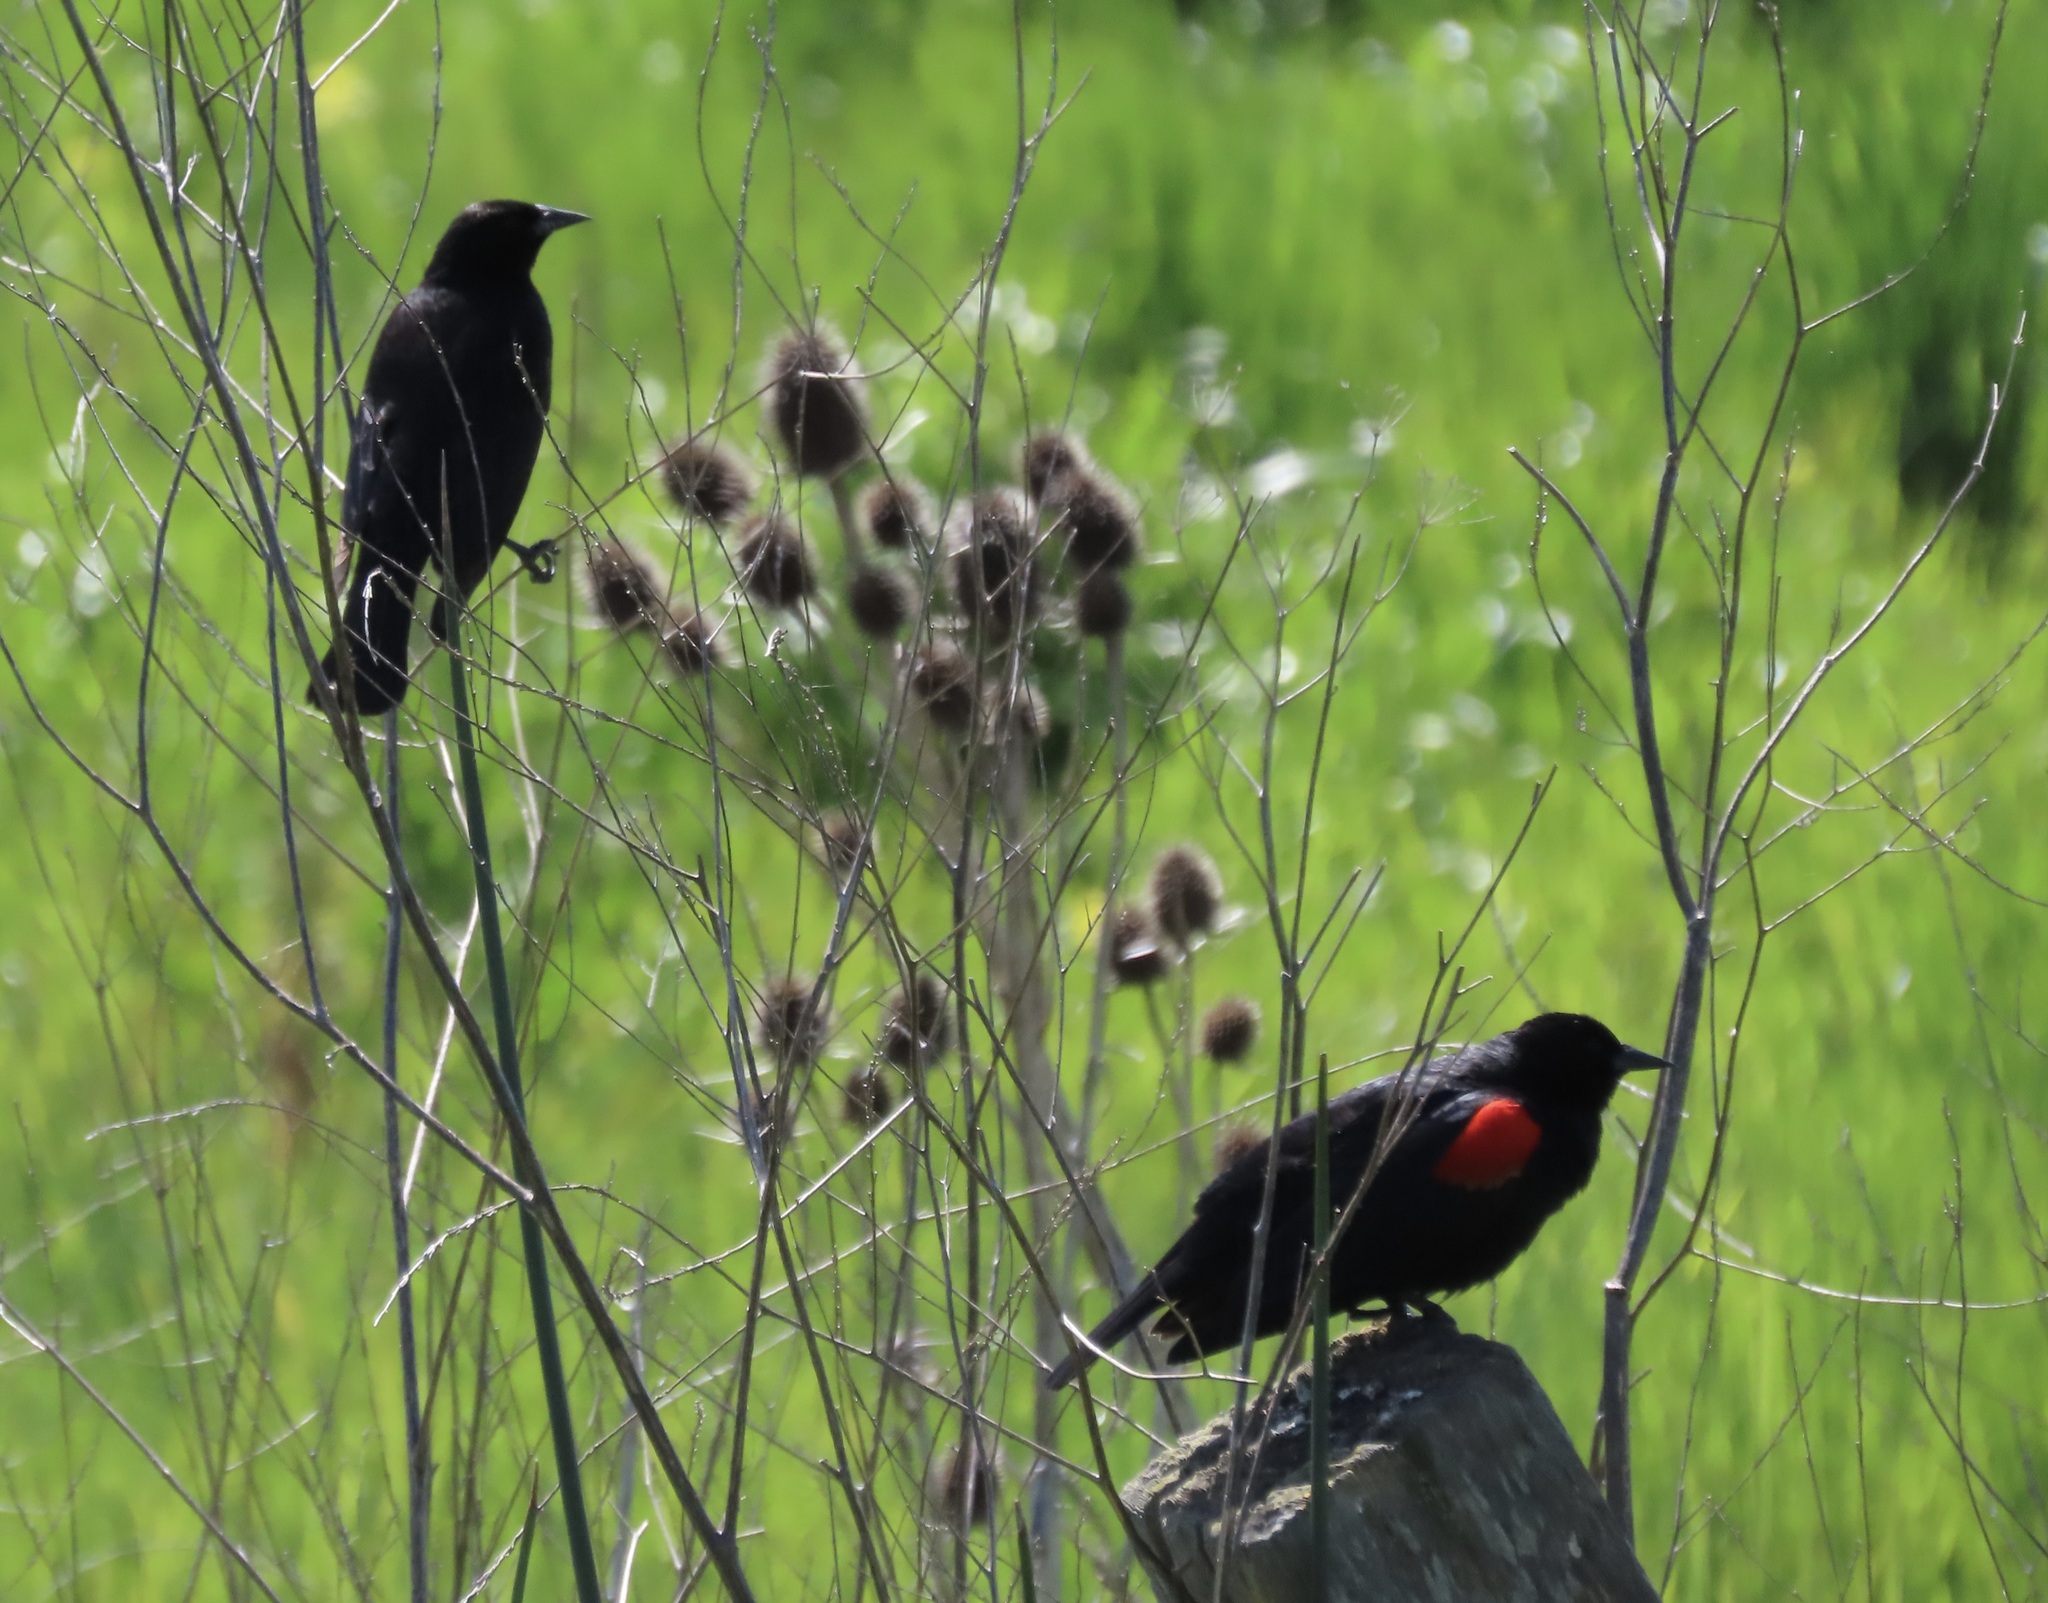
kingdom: Animalia
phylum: Chordata
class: Aves
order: Passeriformes
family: Icteridae
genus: Agelaius
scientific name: Agelaius phoeniceus
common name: Red-winged blackbird
